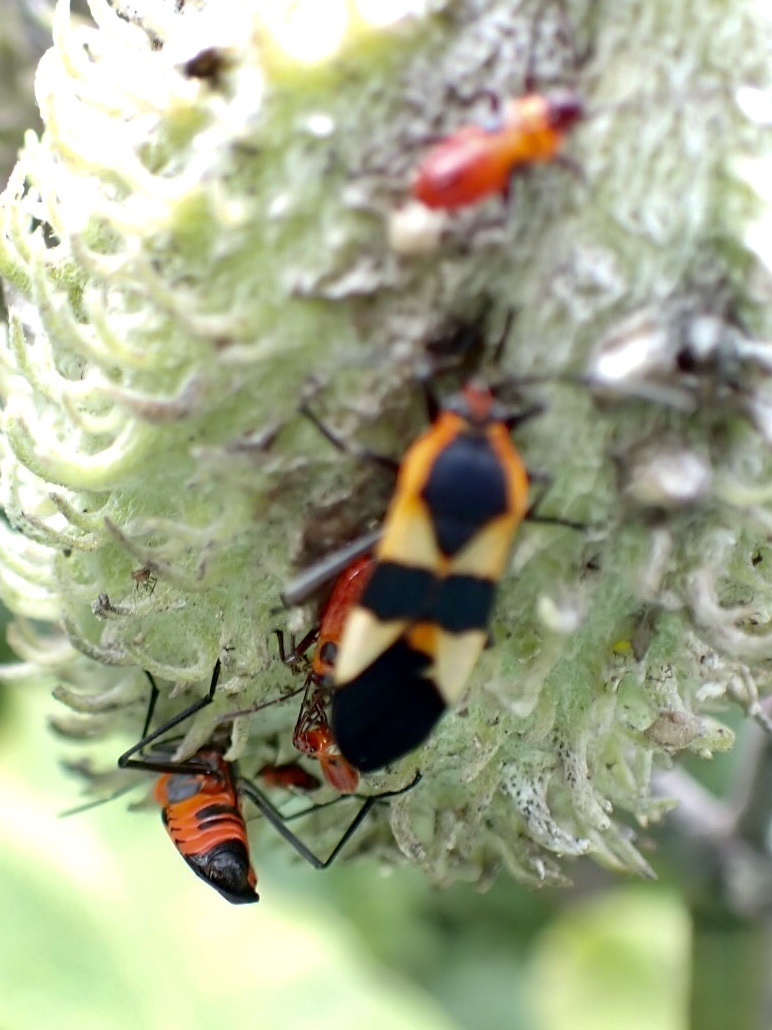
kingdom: Animalia
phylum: Arthropoda
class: Insecta
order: Hemiptera
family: Lygaeidae
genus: Oncopeltus
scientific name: Oncopeltus fasciatus
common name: Large milkweed bug
